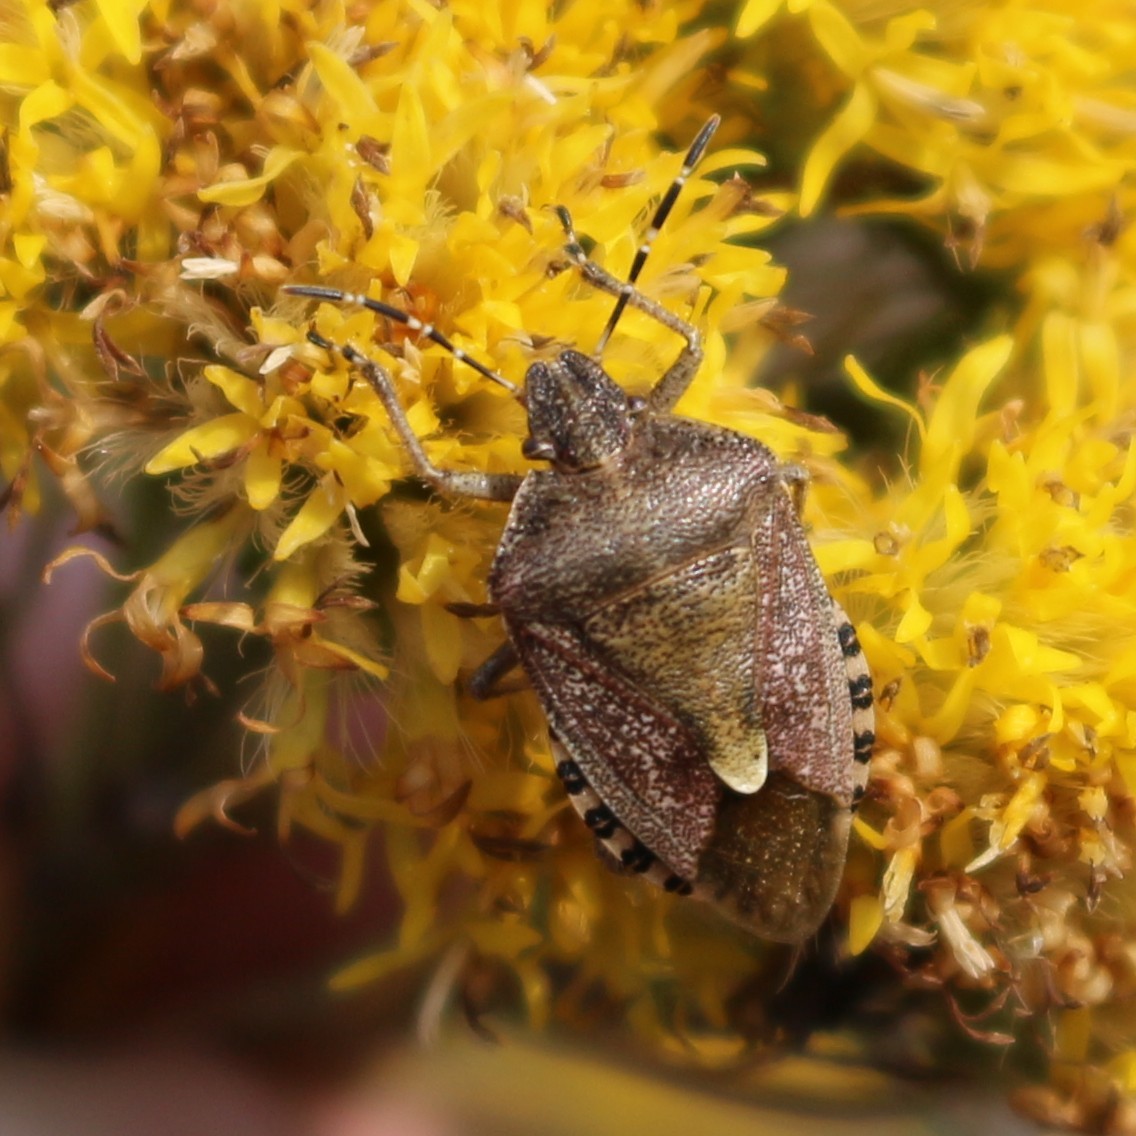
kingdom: Animalia
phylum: Arthropoda
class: Insecta
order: Hemiptera
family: Pentatomidae
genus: Dolycoris
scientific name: Dolycoris baccarum
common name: Sloe bug
